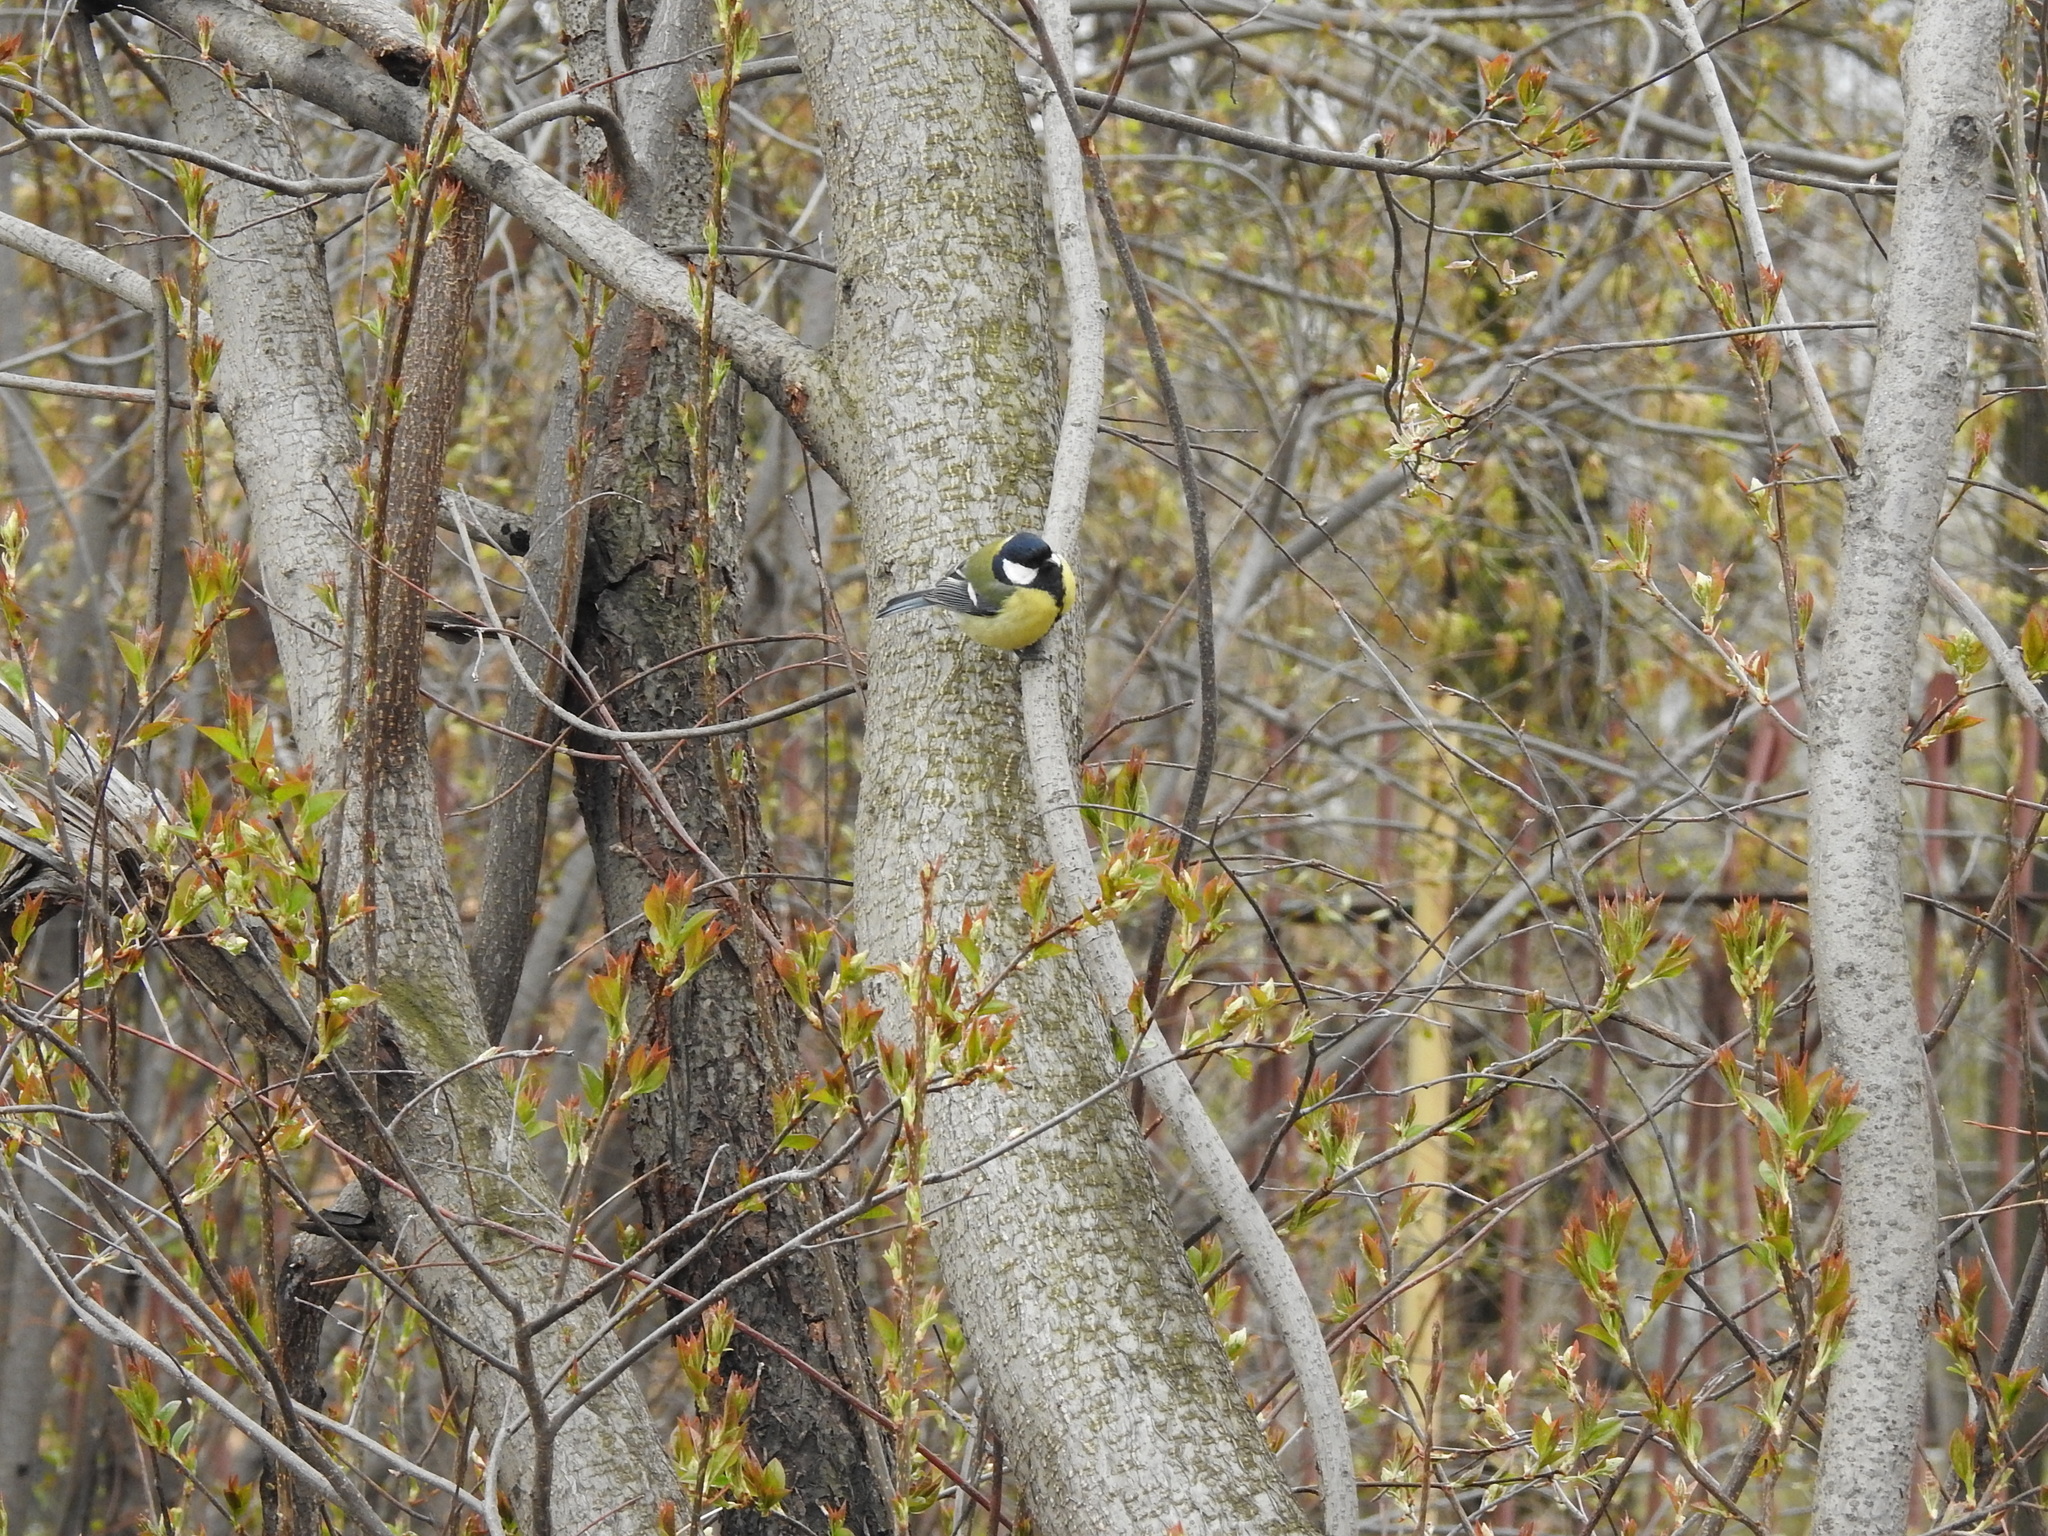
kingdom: Animalia
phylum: Chordata
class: Aves
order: Passeriformes
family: Paridae
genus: Parus
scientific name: Parus major
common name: Great tit
